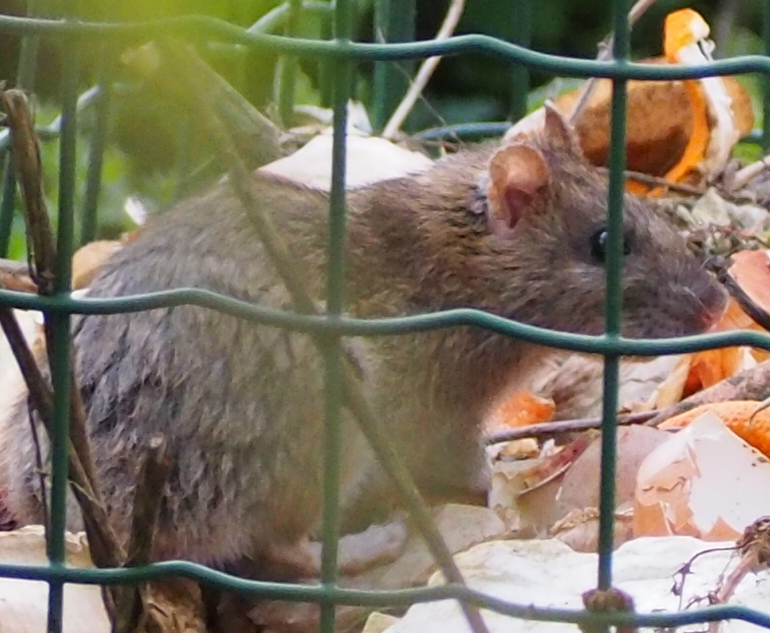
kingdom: Animalia
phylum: Chordata
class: Mammalia
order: Rodentia
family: Muridae
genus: Rattus
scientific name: Rattus norvegicus
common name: Brown rat
